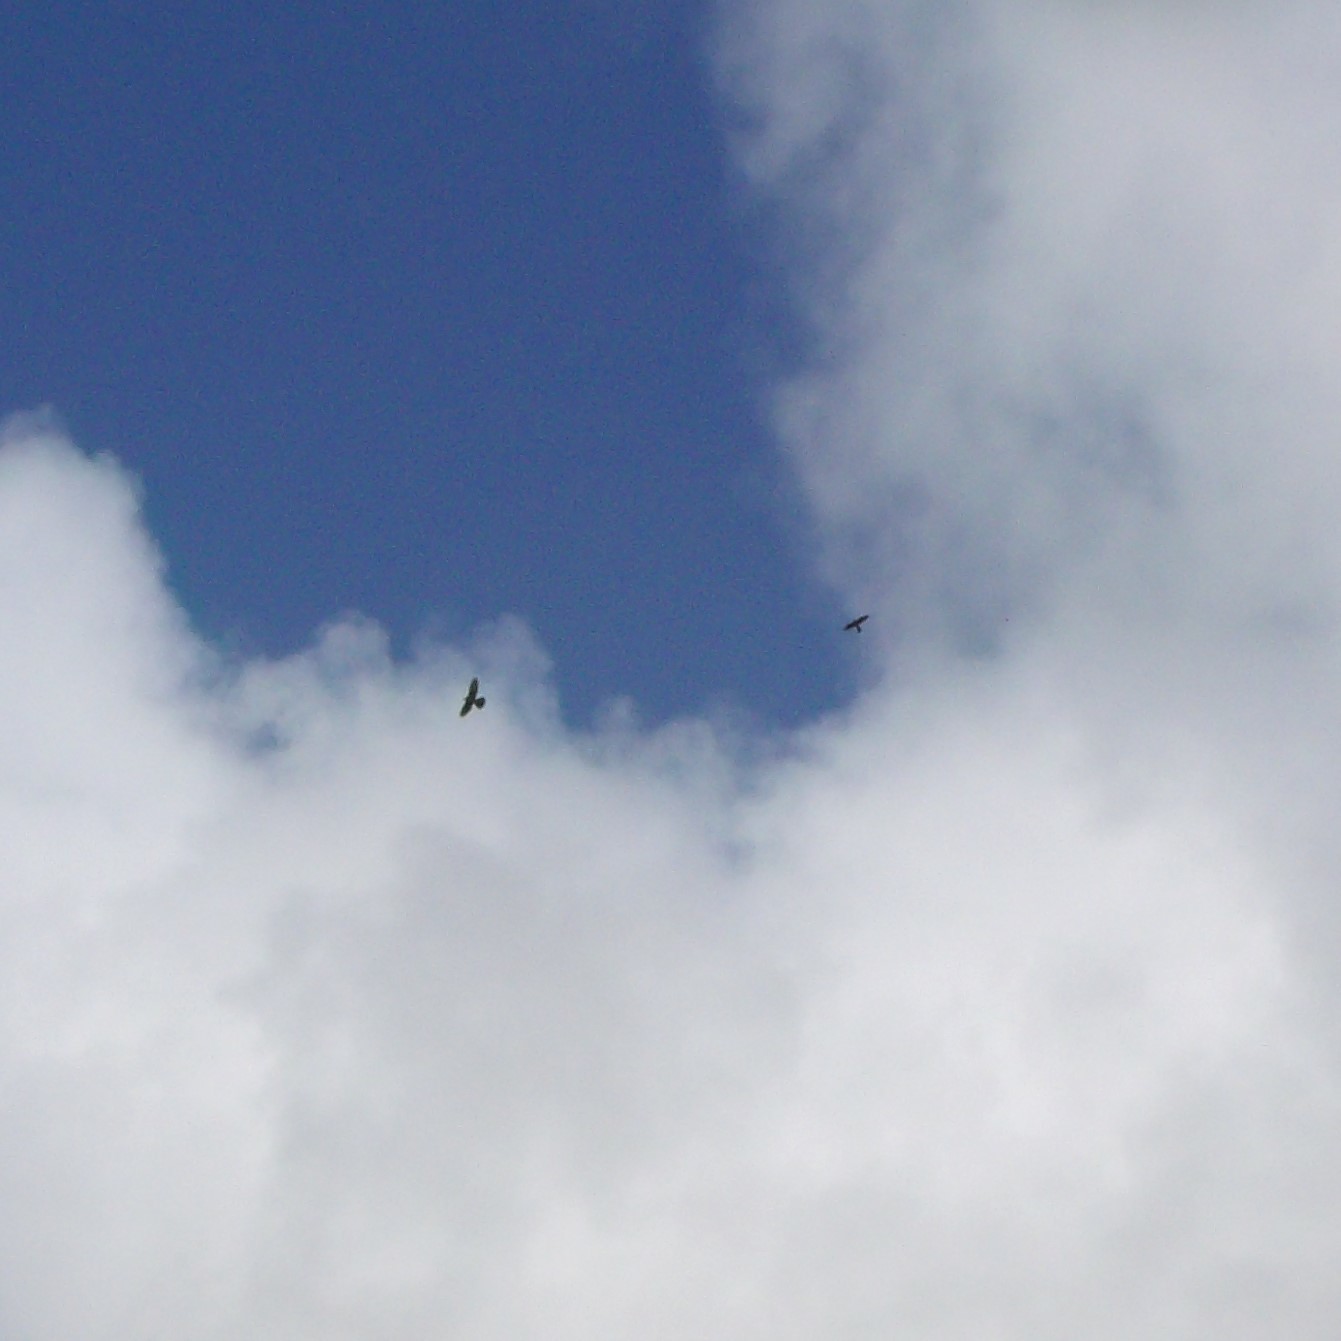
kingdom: Animalia
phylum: Chordata
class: Aves
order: Falconiformes
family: Falconidae
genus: Falco
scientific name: Falco novaeseelandiae
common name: New zealand falcon
